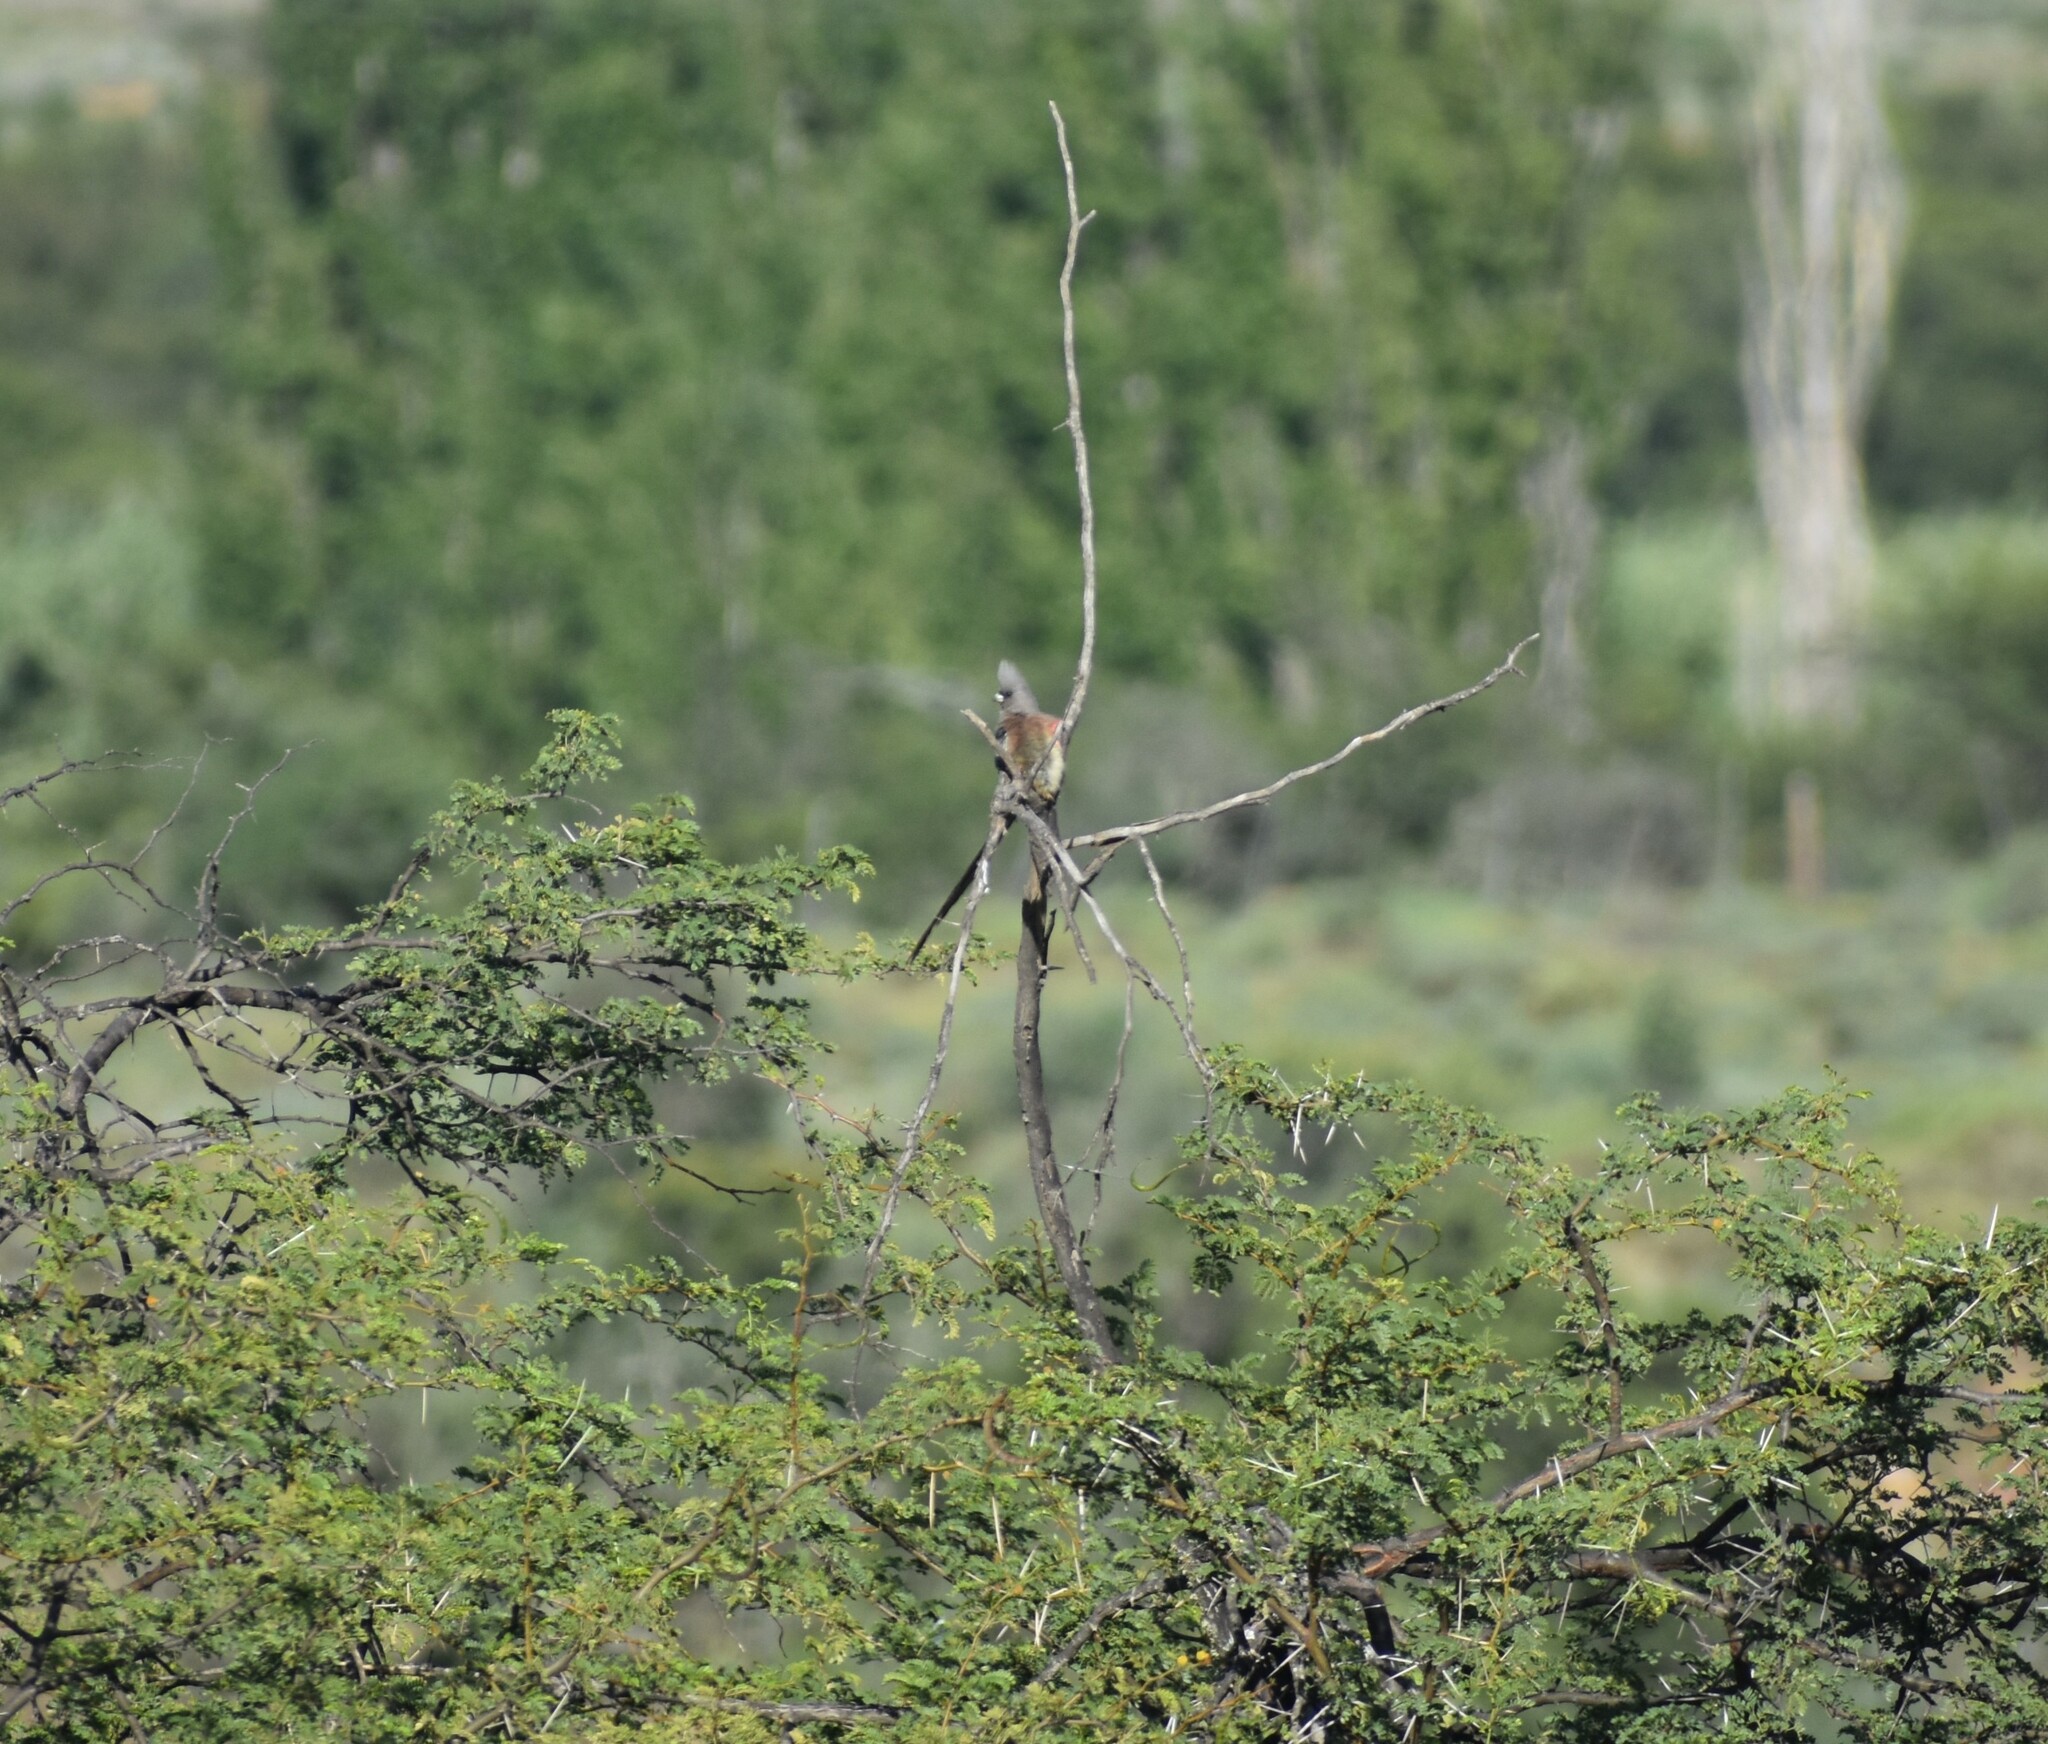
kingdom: Animalia
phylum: Chordata
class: Aves
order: Coliiformes
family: Coliidae
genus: Colius
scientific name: Colius colius
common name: White-backed mousebird
